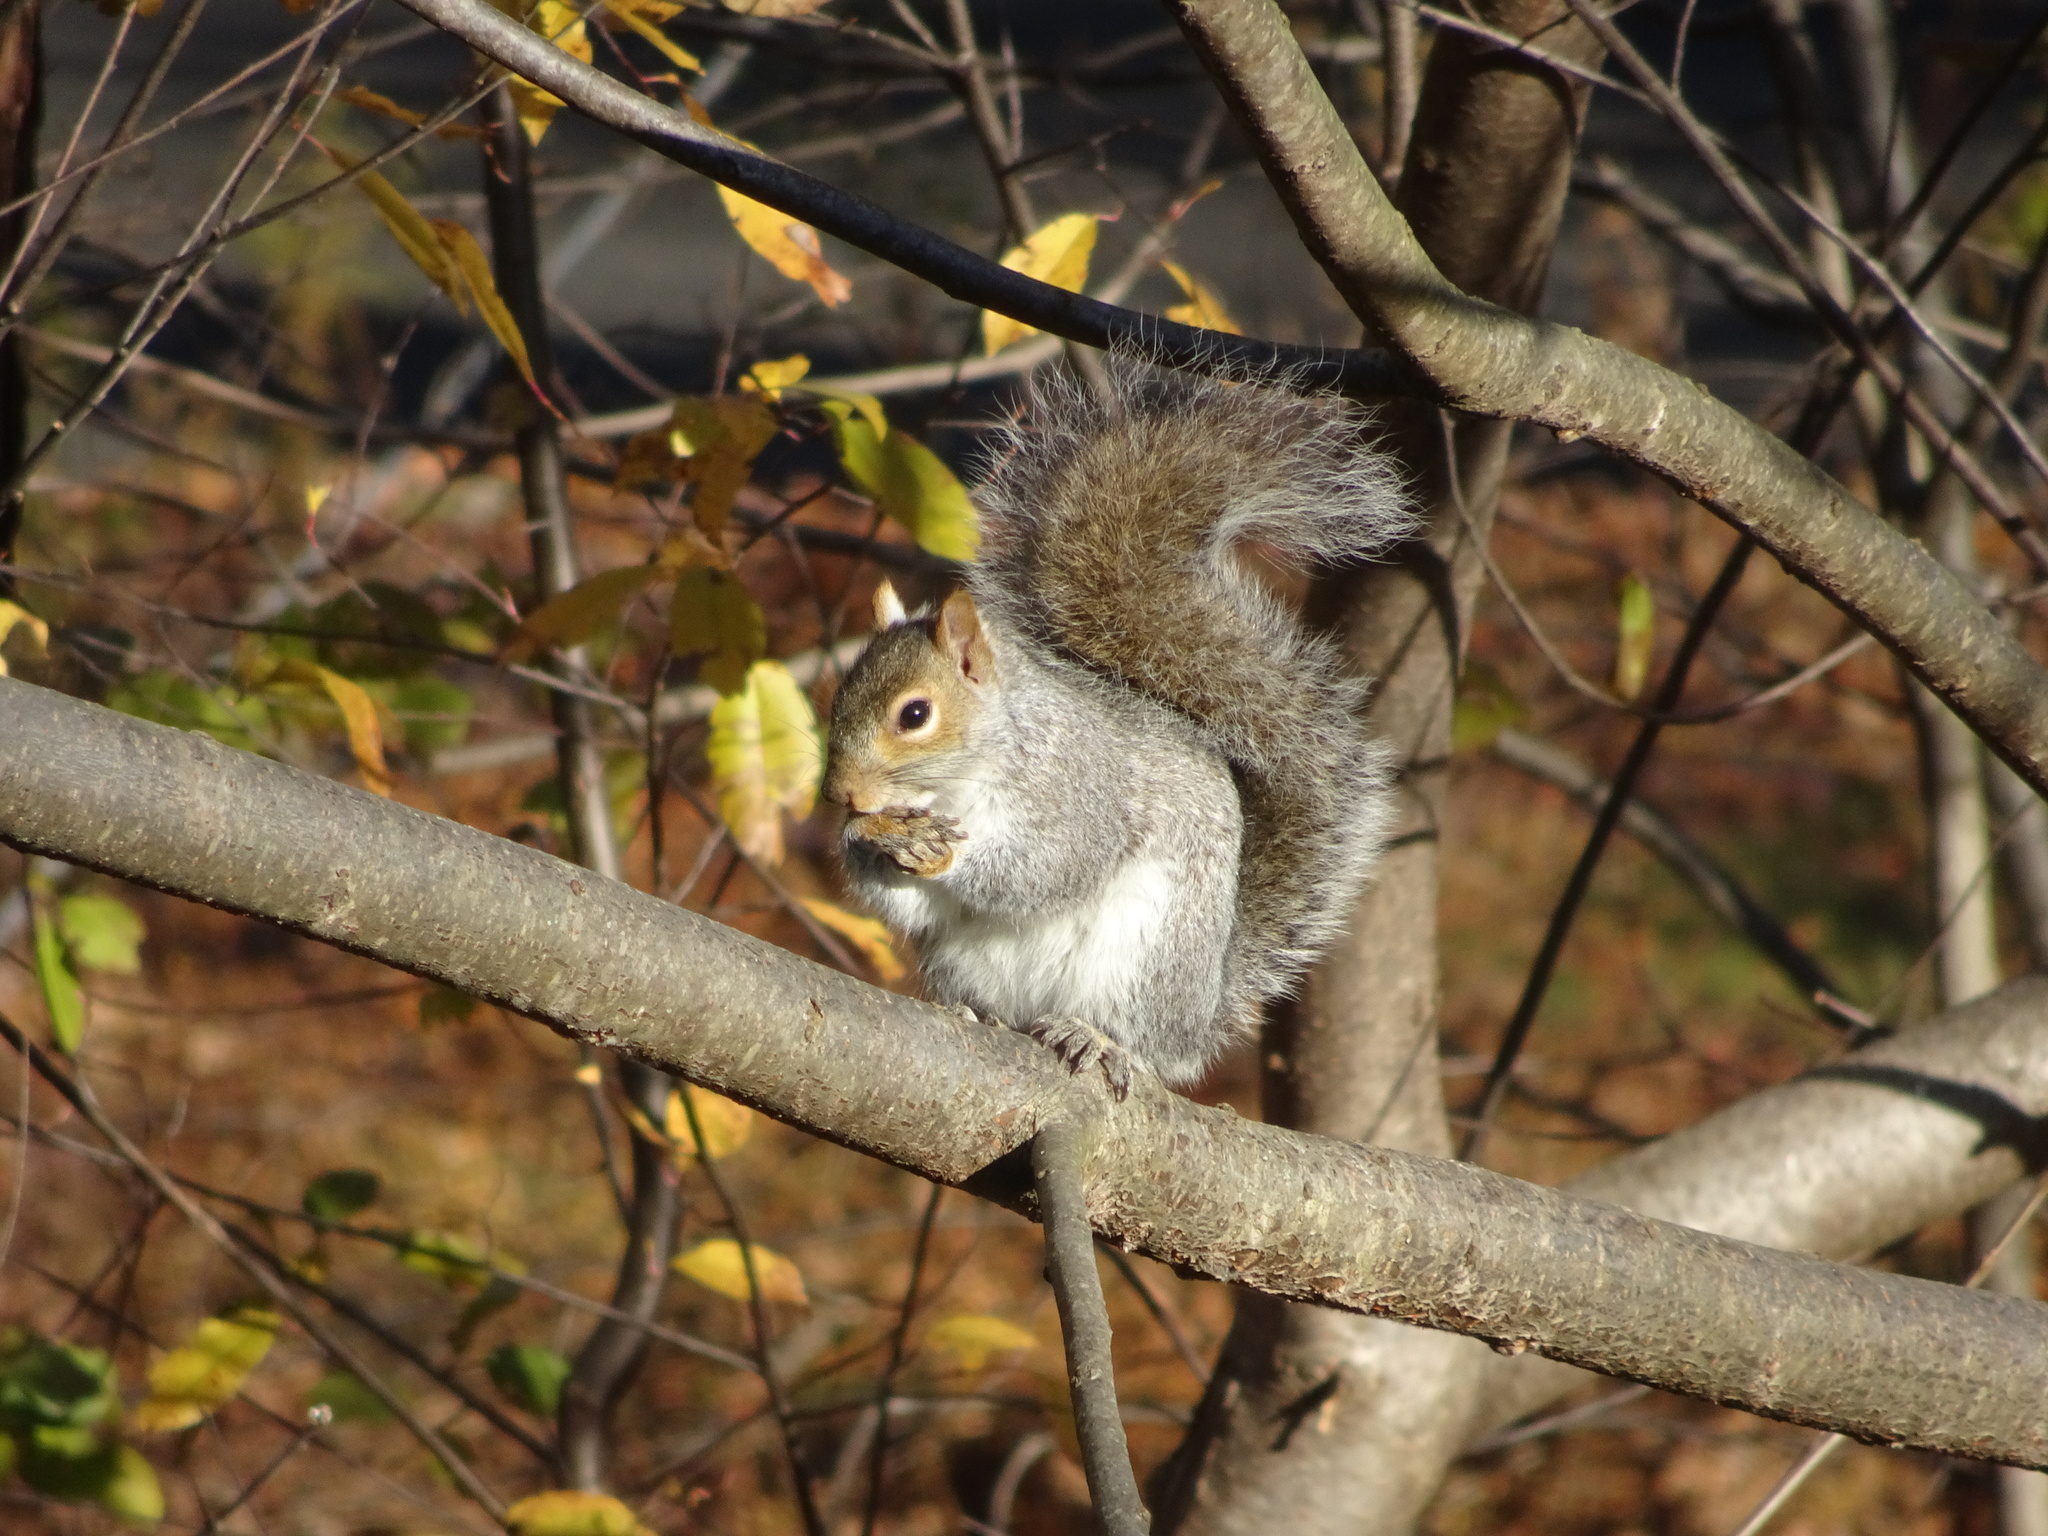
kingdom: Animalia
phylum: Chordata
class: Mammalia
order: Rodentia
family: Sciuridae
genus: Sciurus
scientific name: Sciurus carolinensis
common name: Eastern gray squirrel
